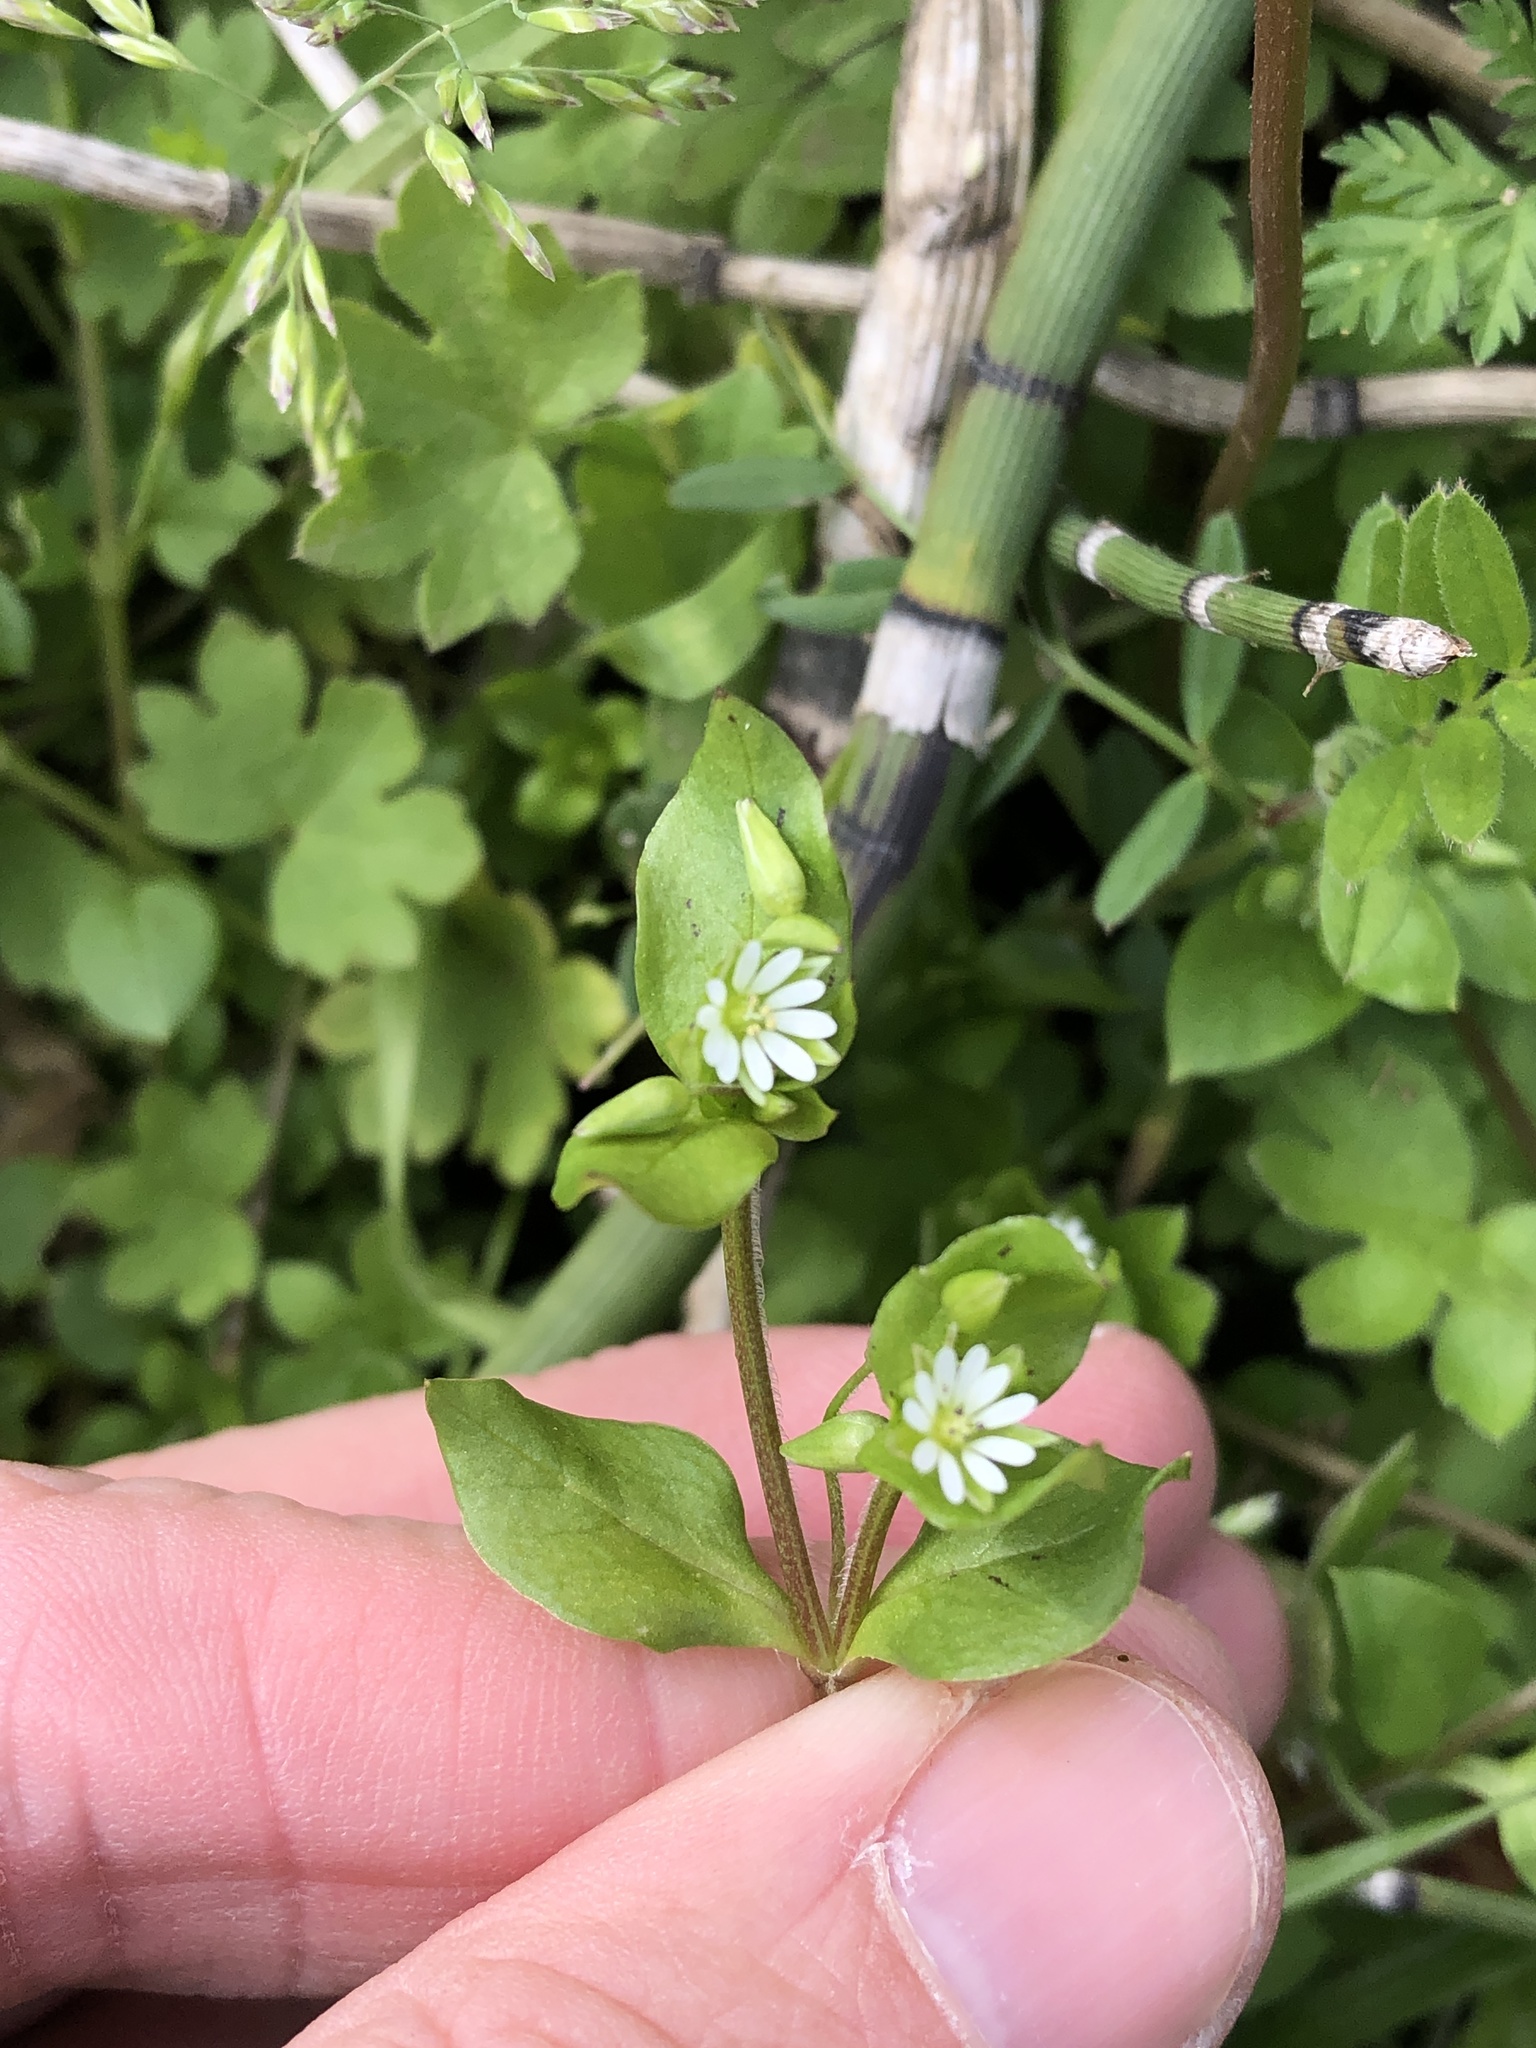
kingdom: Plantae
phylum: Tracheophyta
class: Magnoliopsida
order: Caryophyllales
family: Caryophyllaceae
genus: Stellaria
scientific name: Stellaria media
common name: Common chickweed
